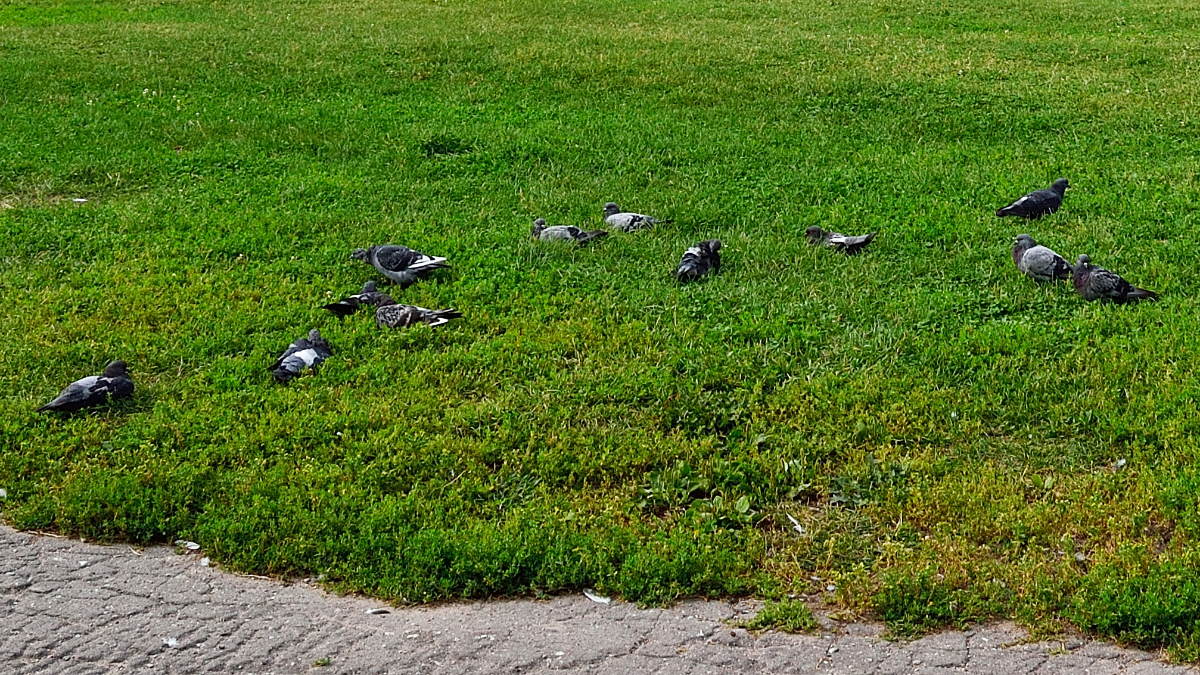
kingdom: Animalia
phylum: Chordata
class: Aves
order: Columbiformes
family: Columbidae
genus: Columba
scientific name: Columba livia
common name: Rock pigeon
